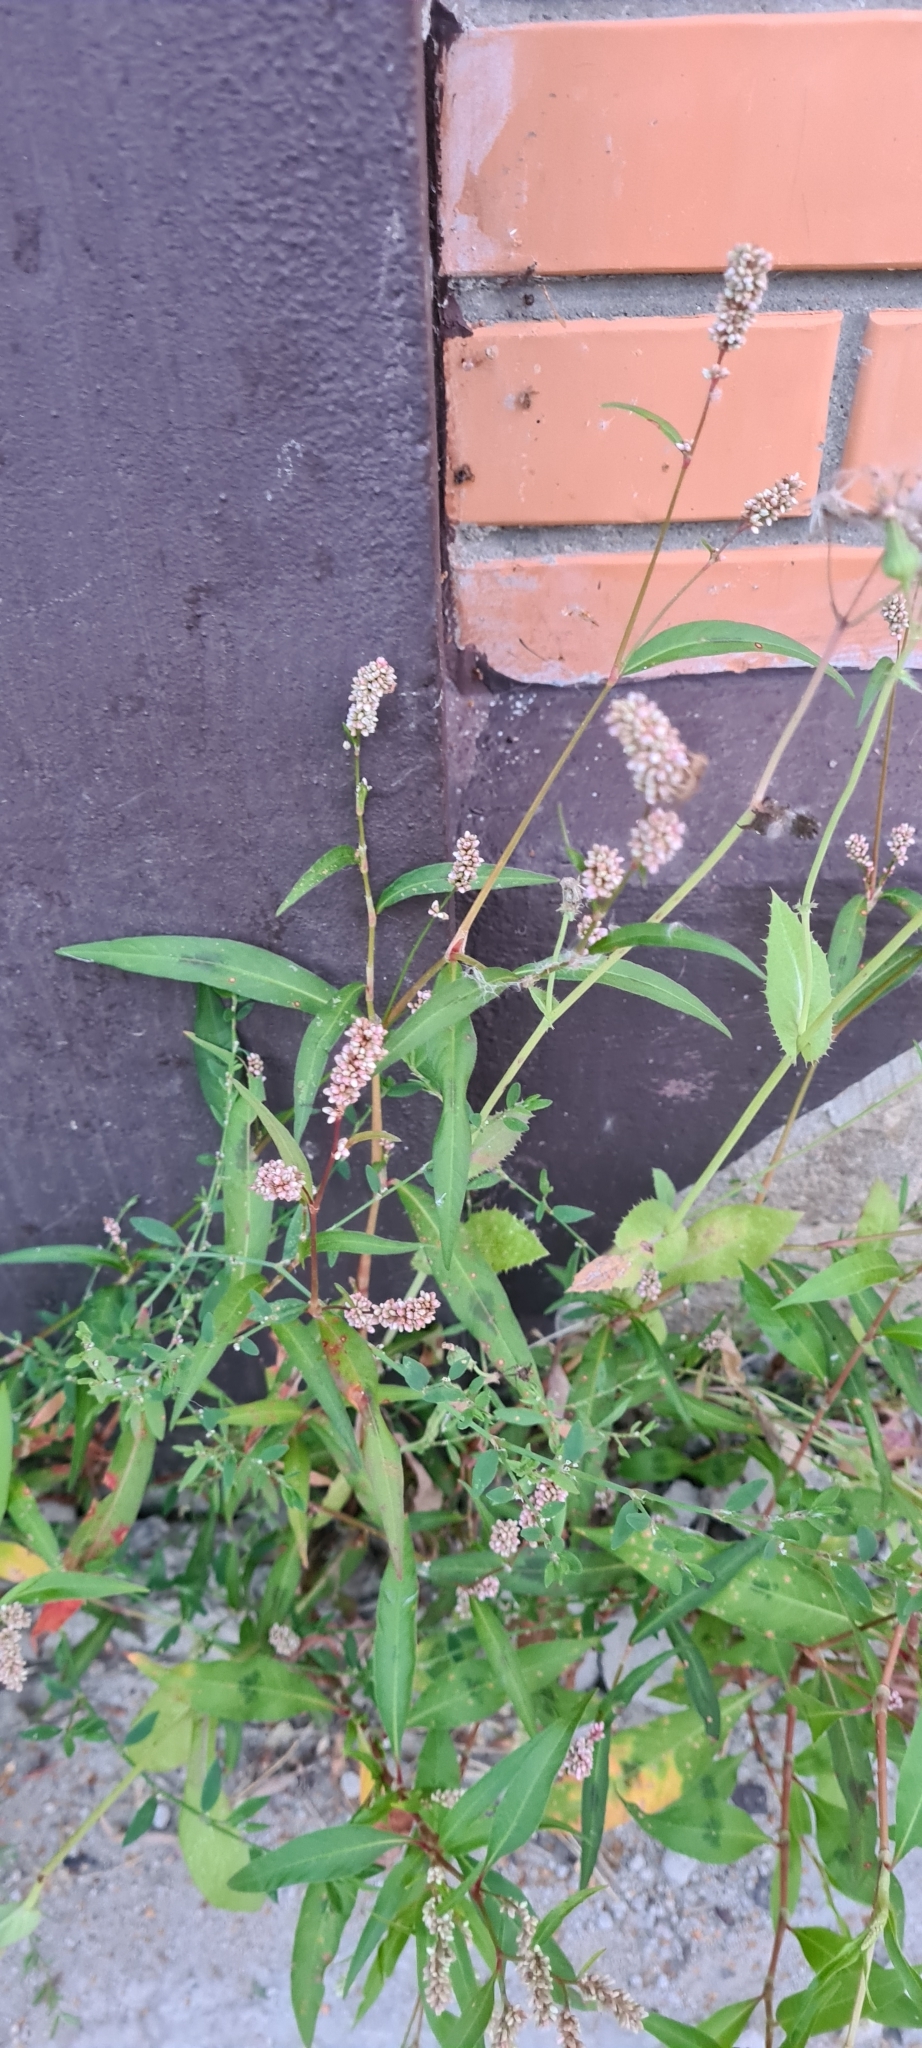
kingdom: Plantae
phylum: Tracheophyta
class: Magnoliopsida
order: Caryophyllales
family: Polygonaceae
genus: Persicaria
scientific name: Persicaria maculosa
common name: Redshank
